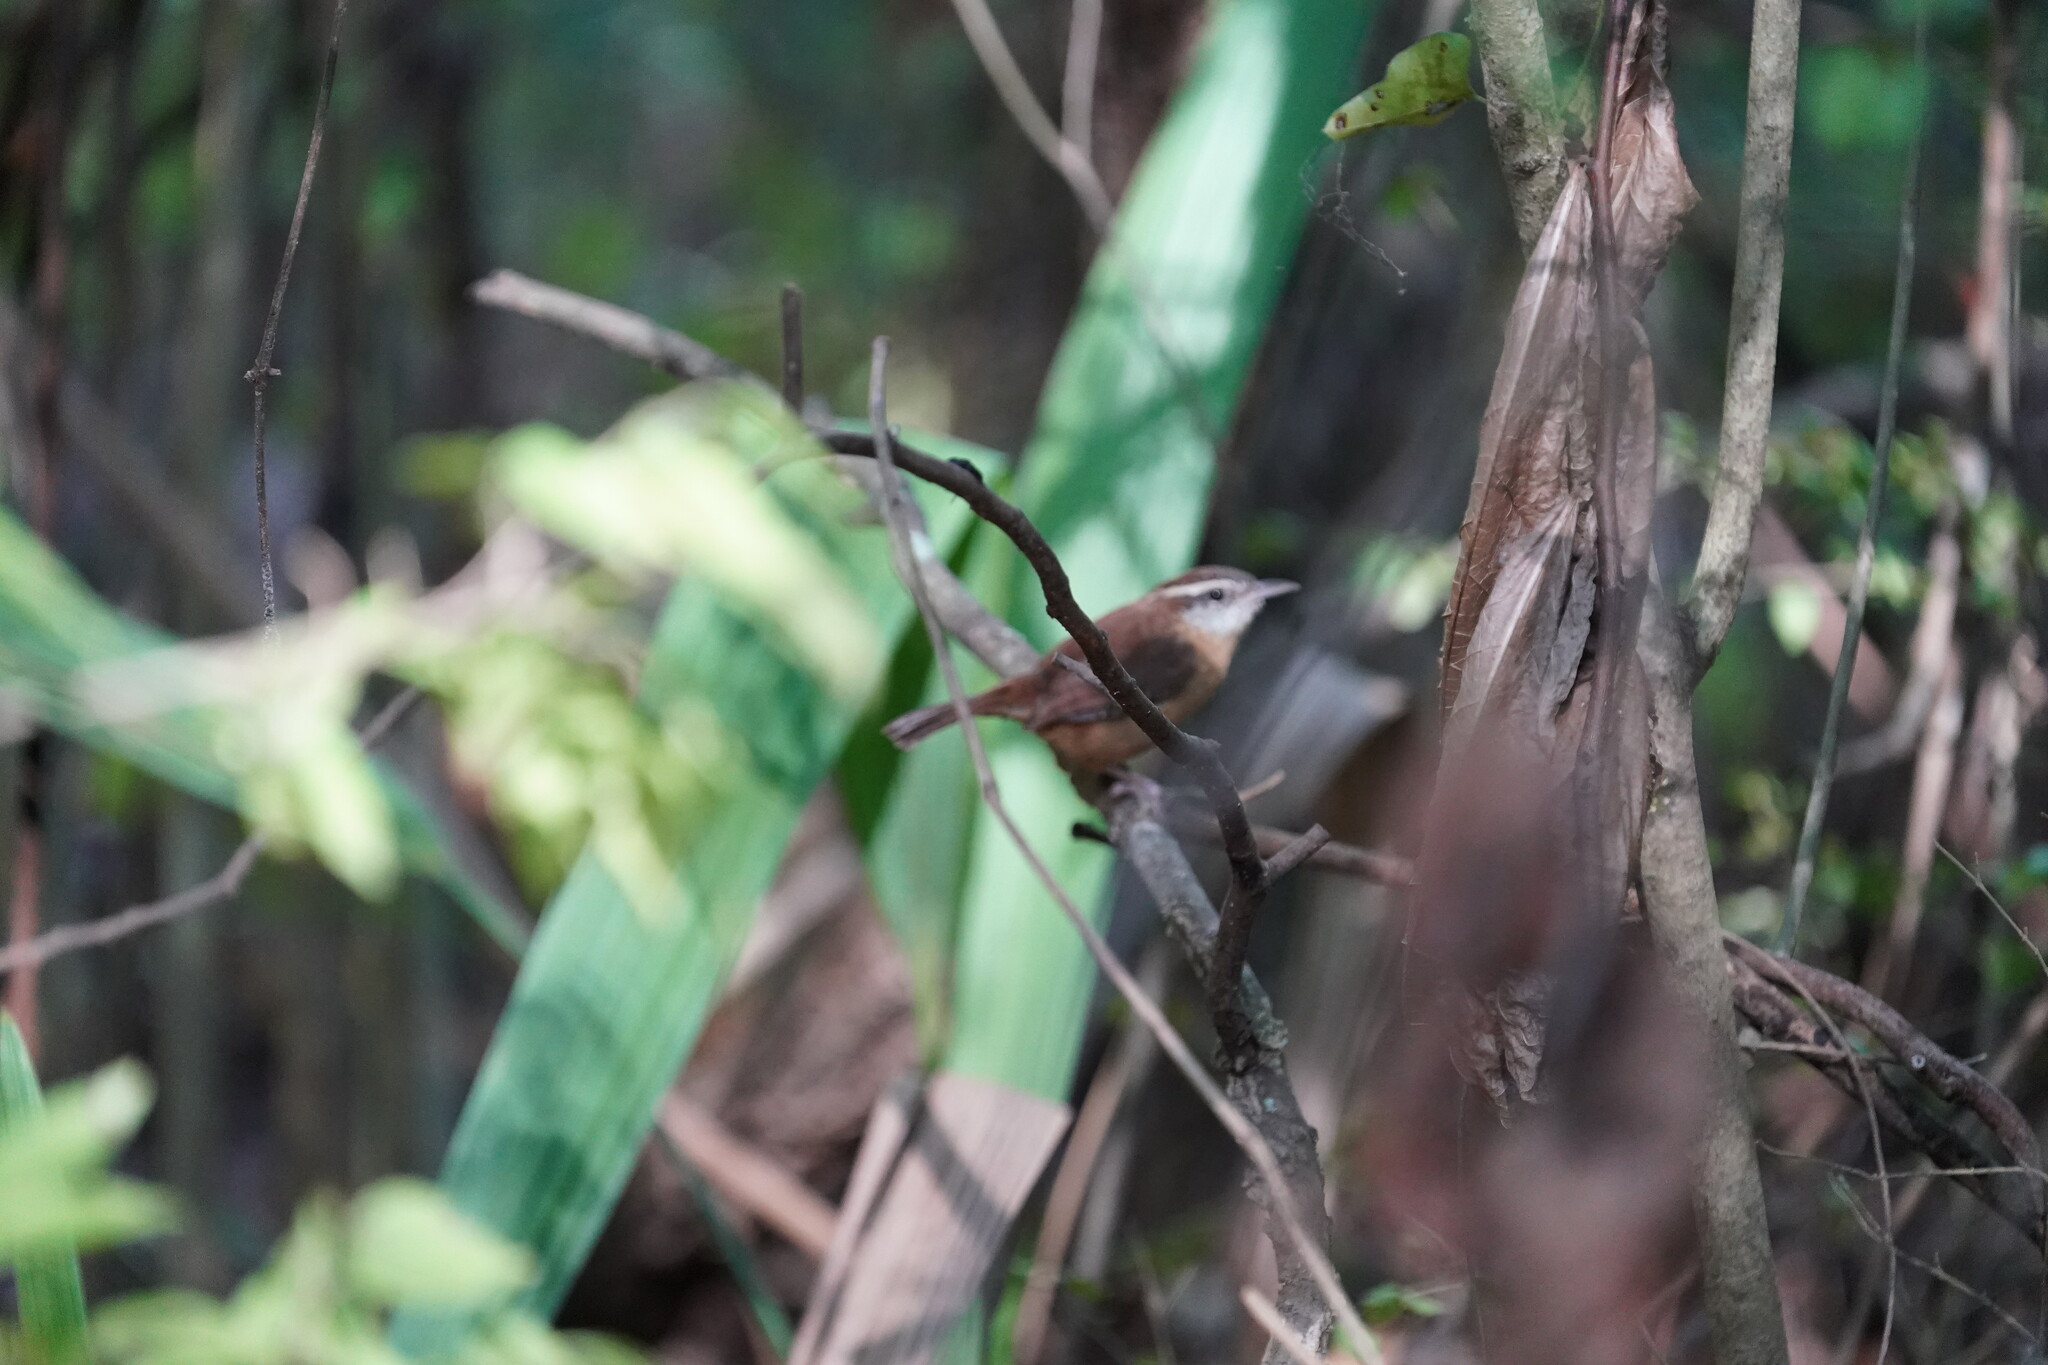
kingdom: Animalia
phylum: Chordata
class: Aves
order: Passeriformes
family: Troglodytidae
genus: Thryothorus
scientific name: Thryothorus ludovicianus
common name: Carolina wren
